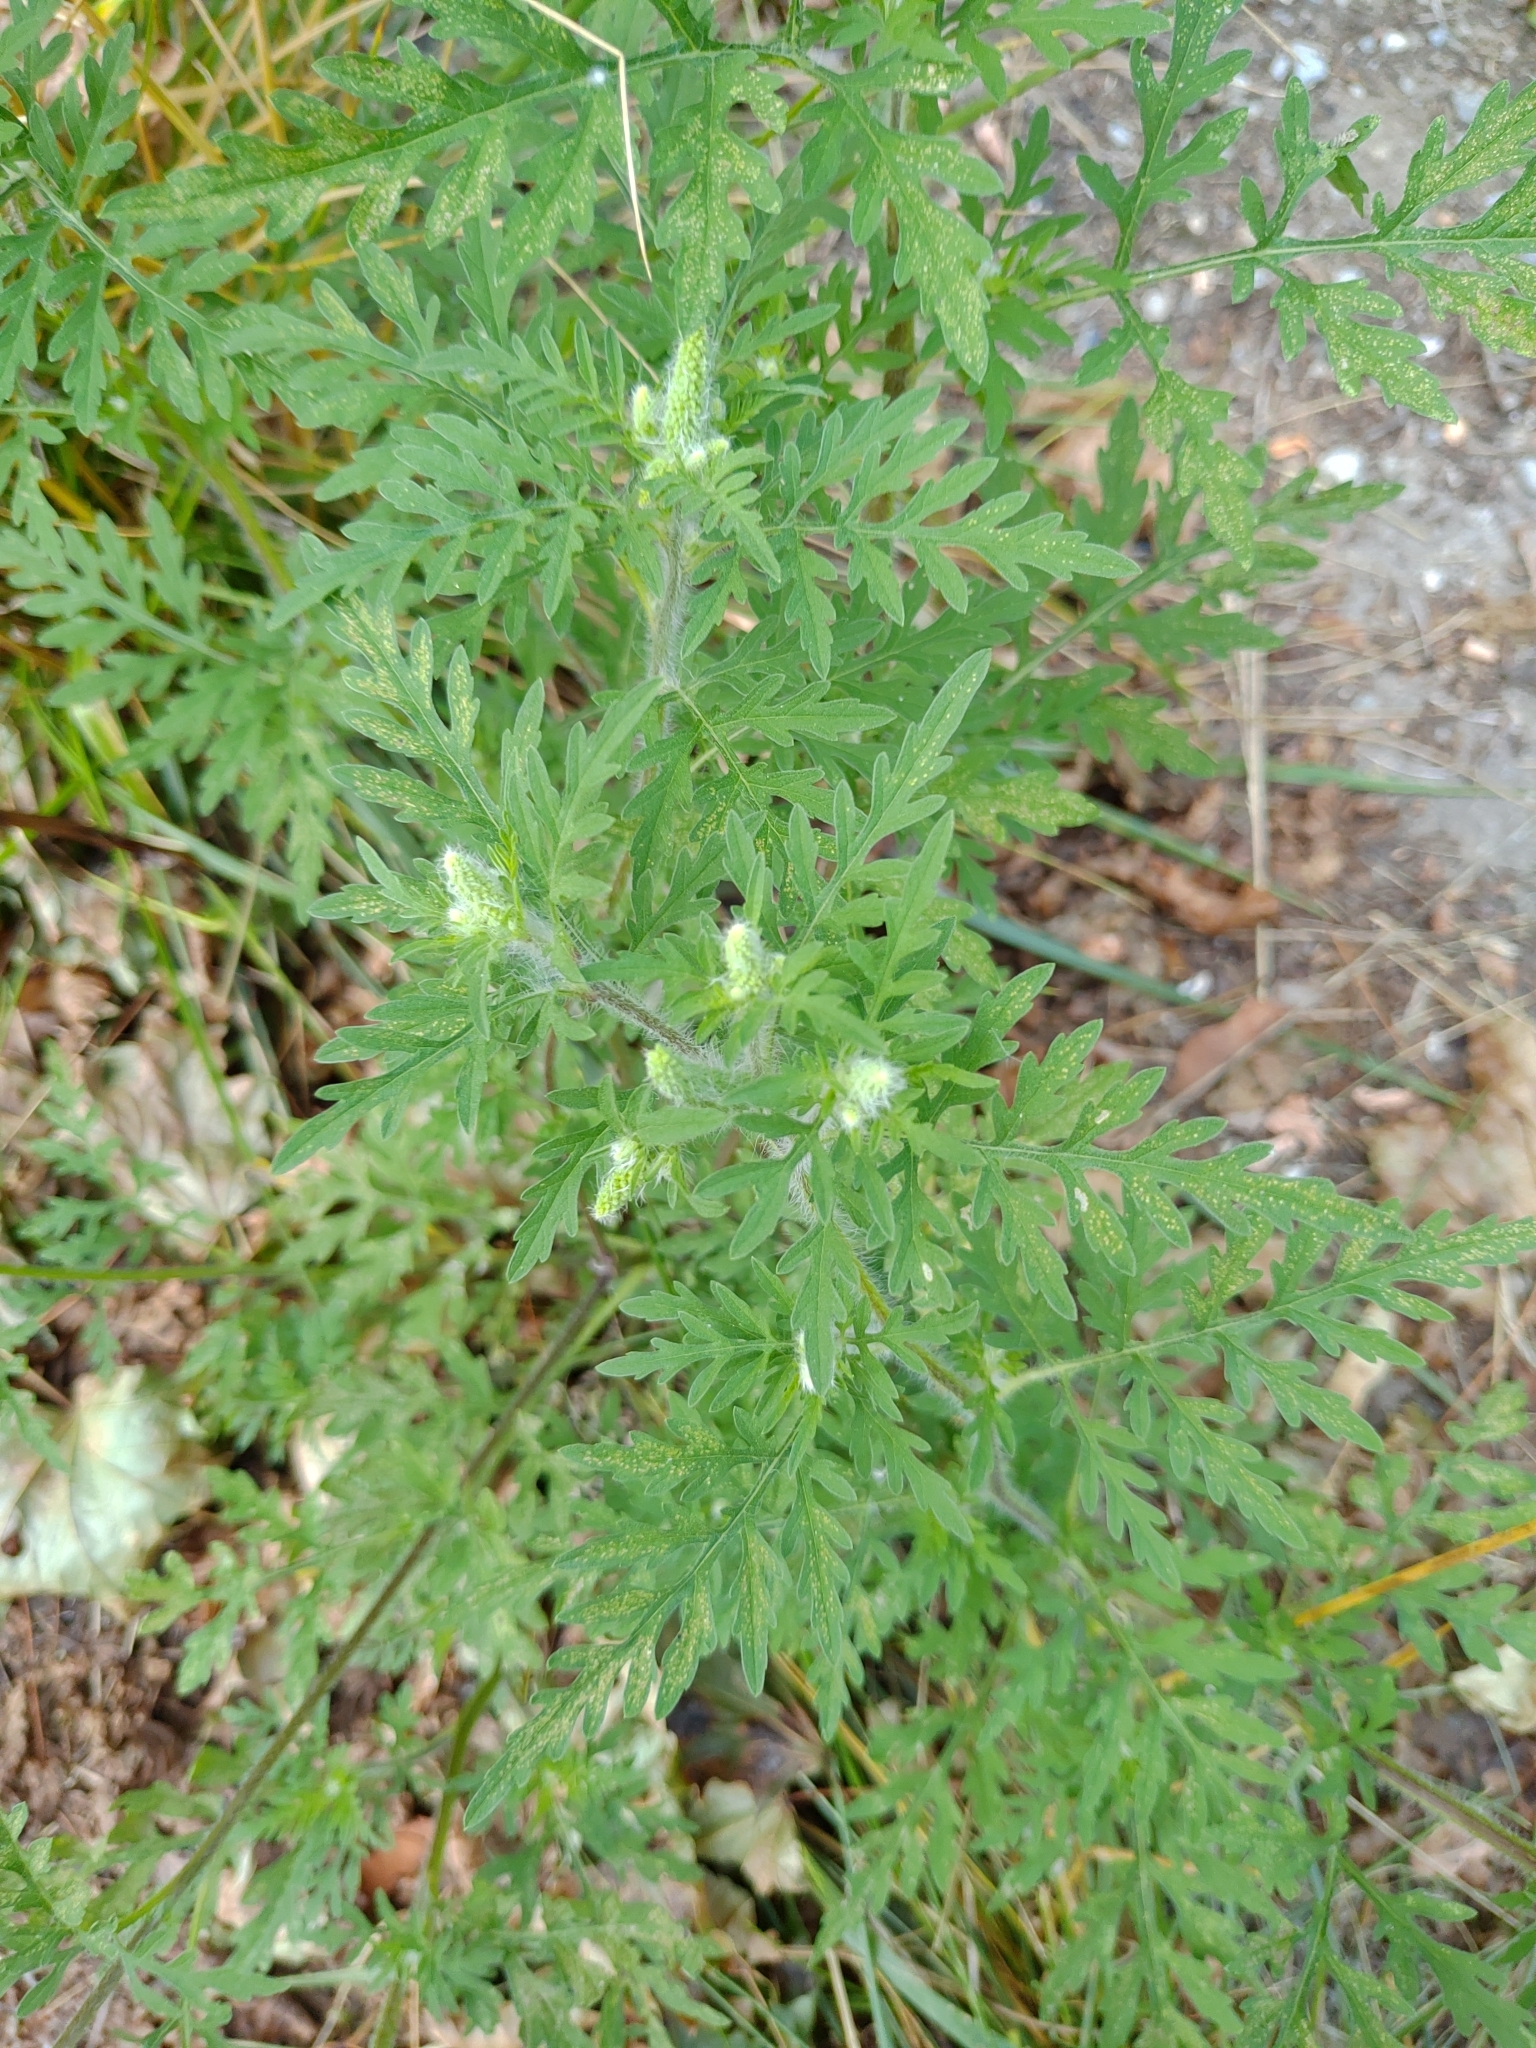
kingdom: Plantae
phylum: Tracheophyta
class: Magnoliopsida
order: Asterales
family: Asteraceae
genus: Ambrosia
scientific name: Ambrosia artemisiifolia
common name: Annual ragweed
